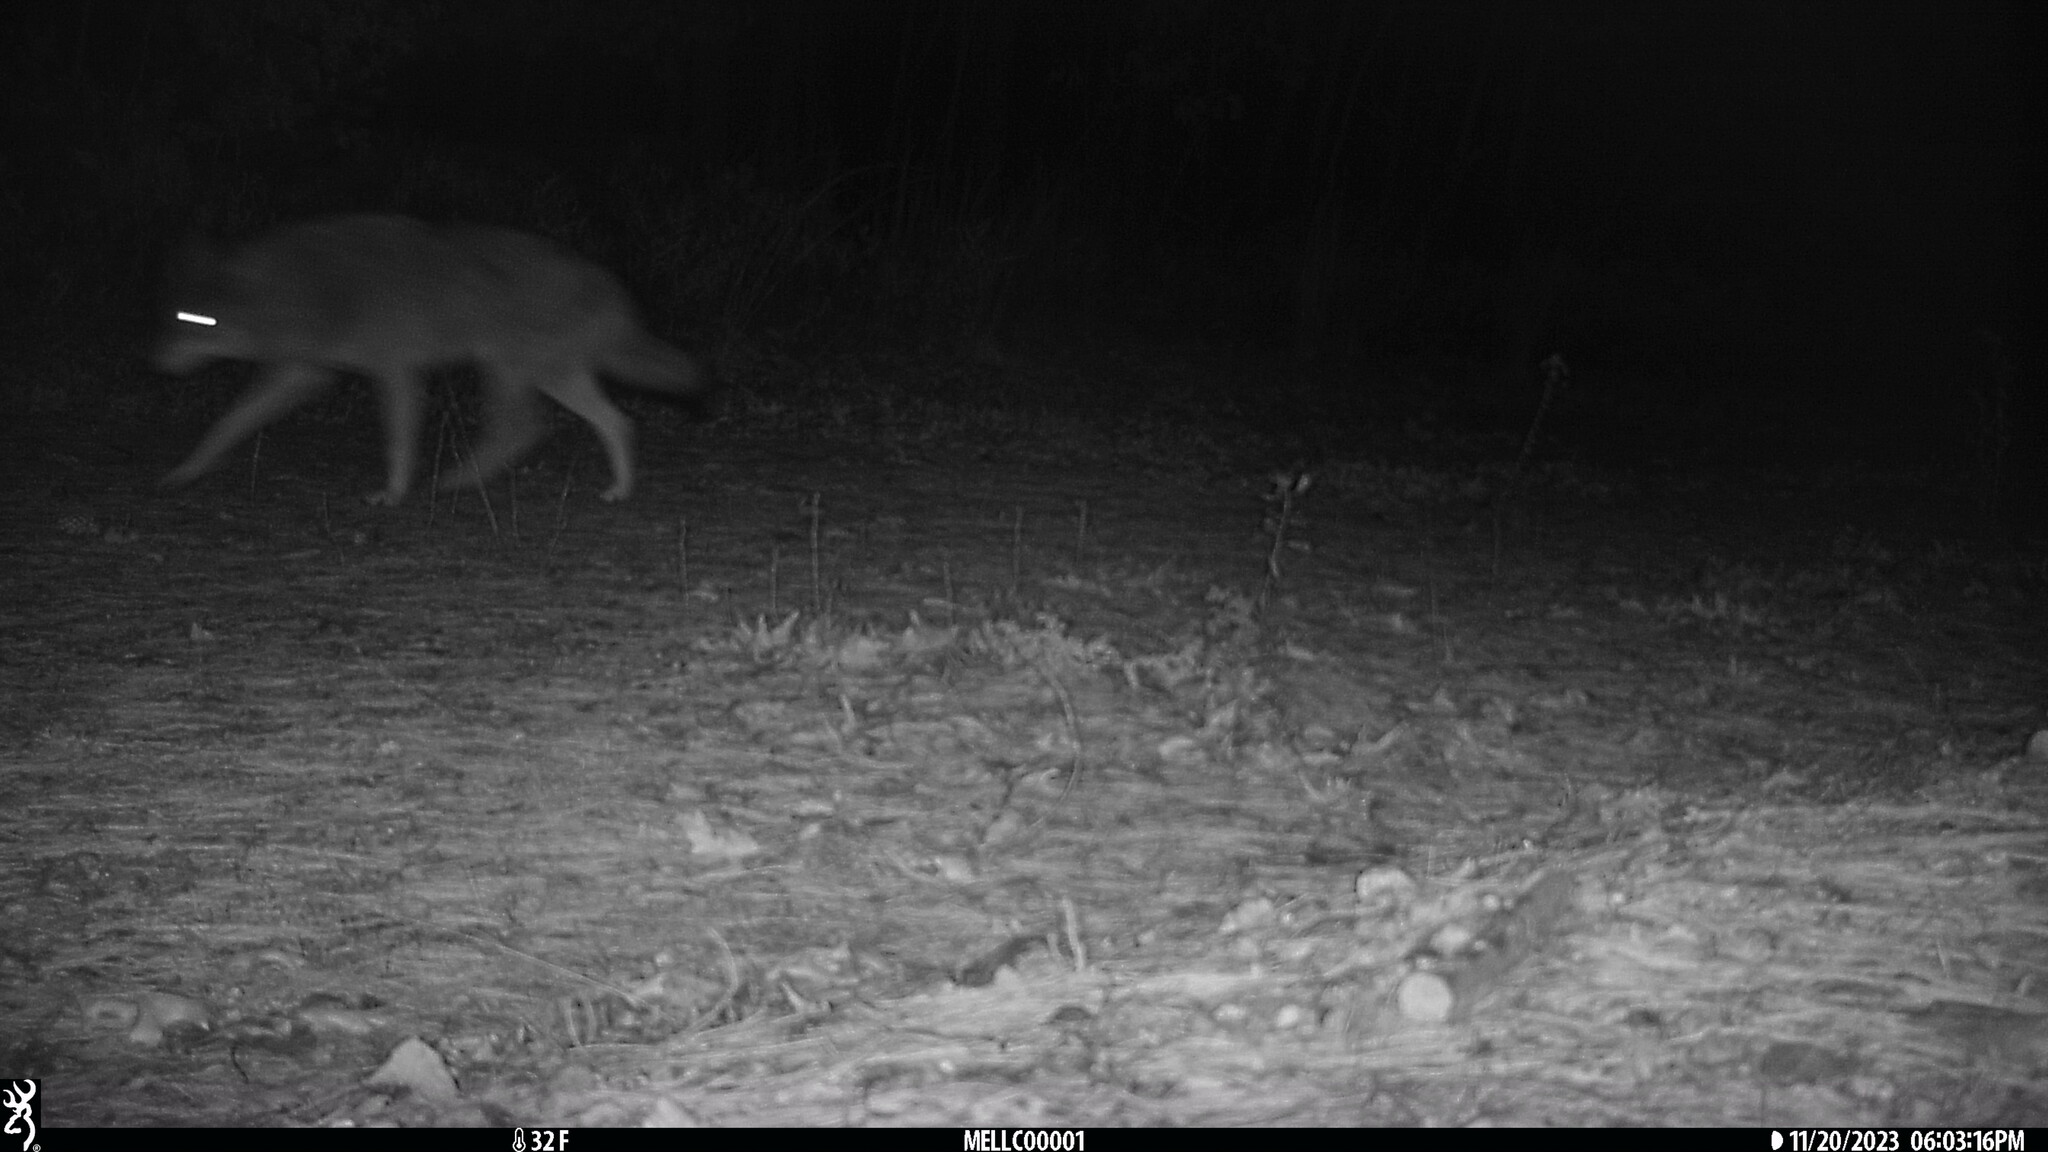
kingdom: Animalia
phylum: Chordata
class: Mammalia
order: Carnivora
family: Canidae
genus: Canis
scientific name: Canis latrans
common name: Coyote
